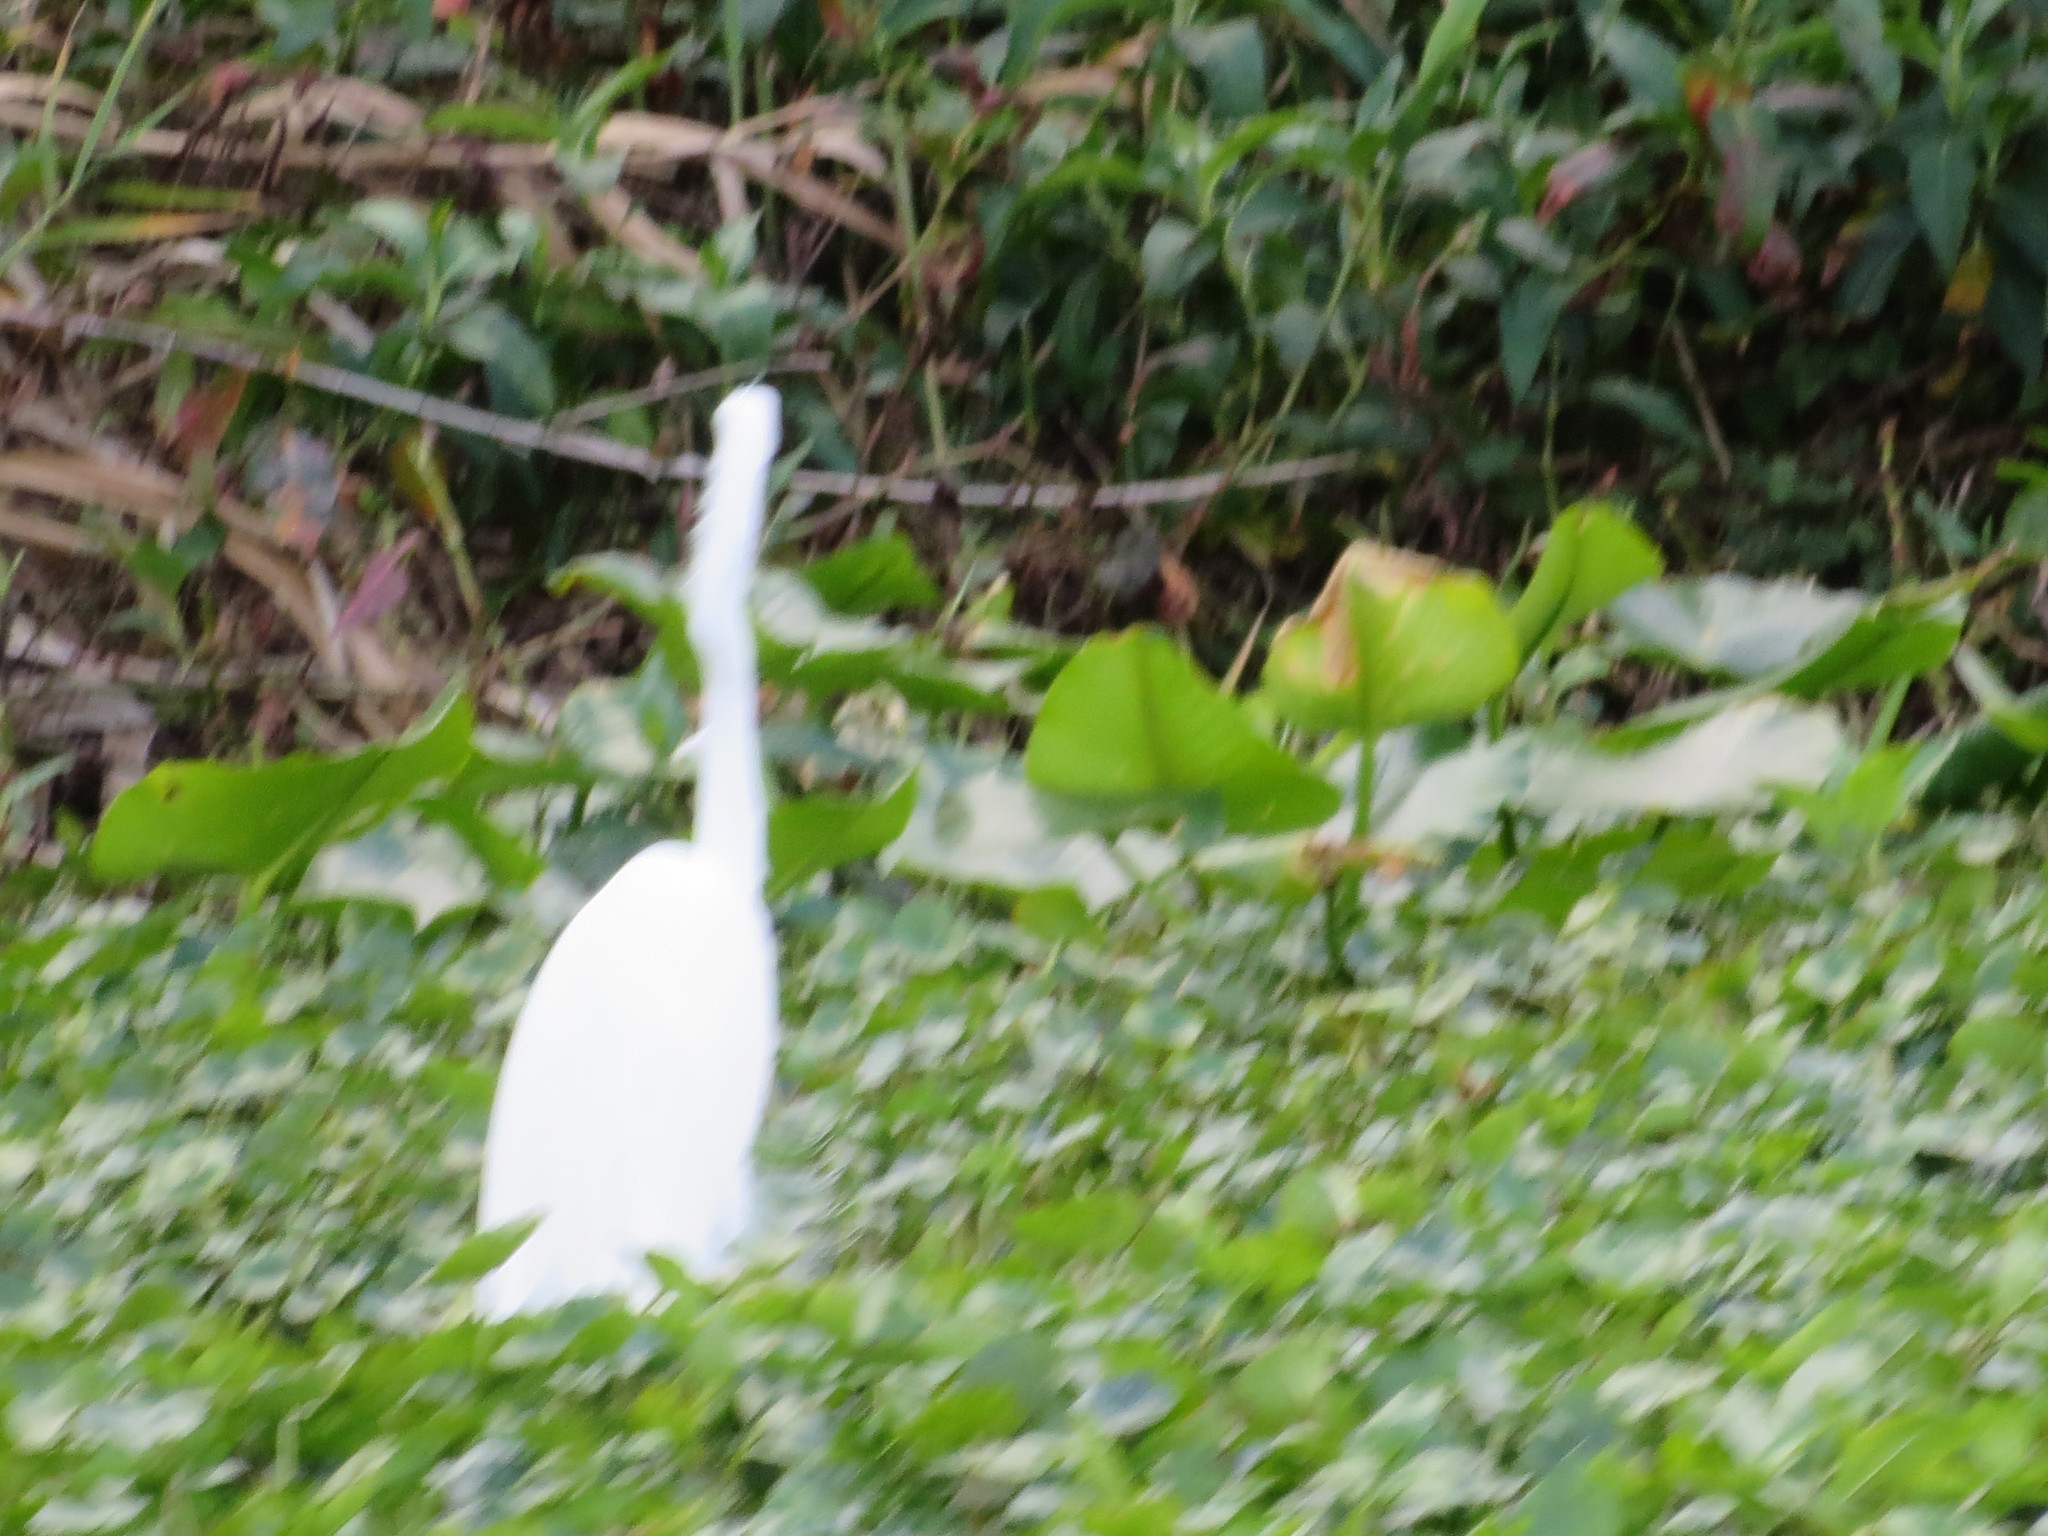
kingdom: Animalia
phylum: Chordata
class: Aves
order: Pelecaniformes
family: Ardeidae
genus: Ardea
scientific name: Ardea alba
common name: Great egret
